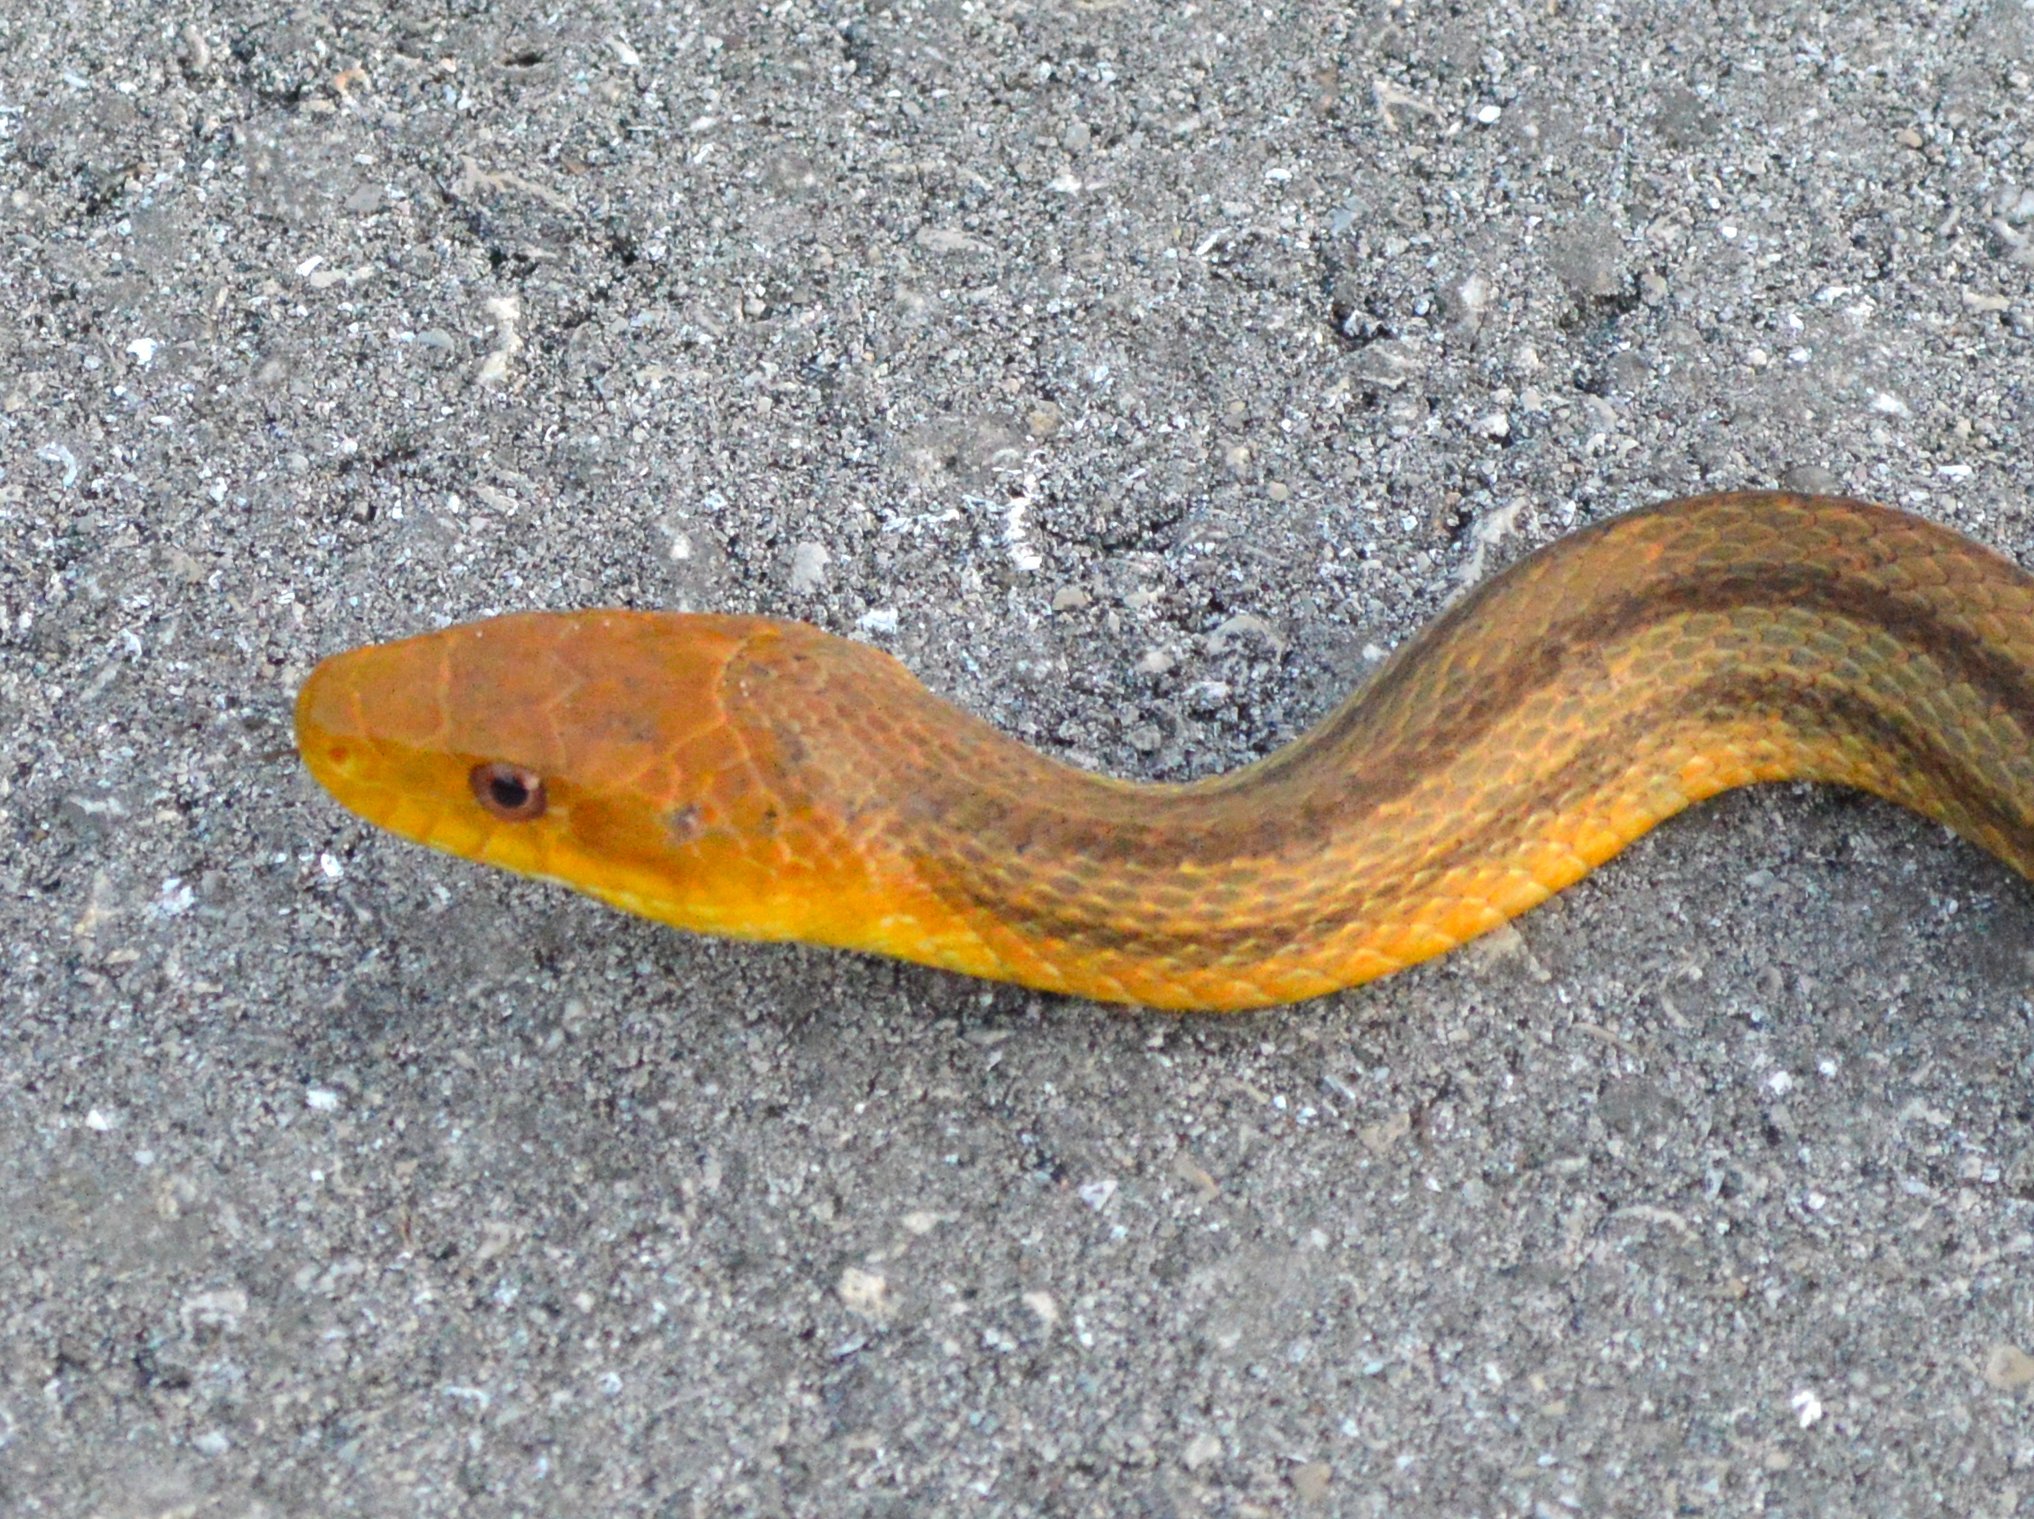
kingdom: Animalia
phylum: Chordata
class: Squamata
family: Colubridae
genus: Pantherophis
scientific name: Pantherophis alleghaniensis
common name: Eastern rat snake
